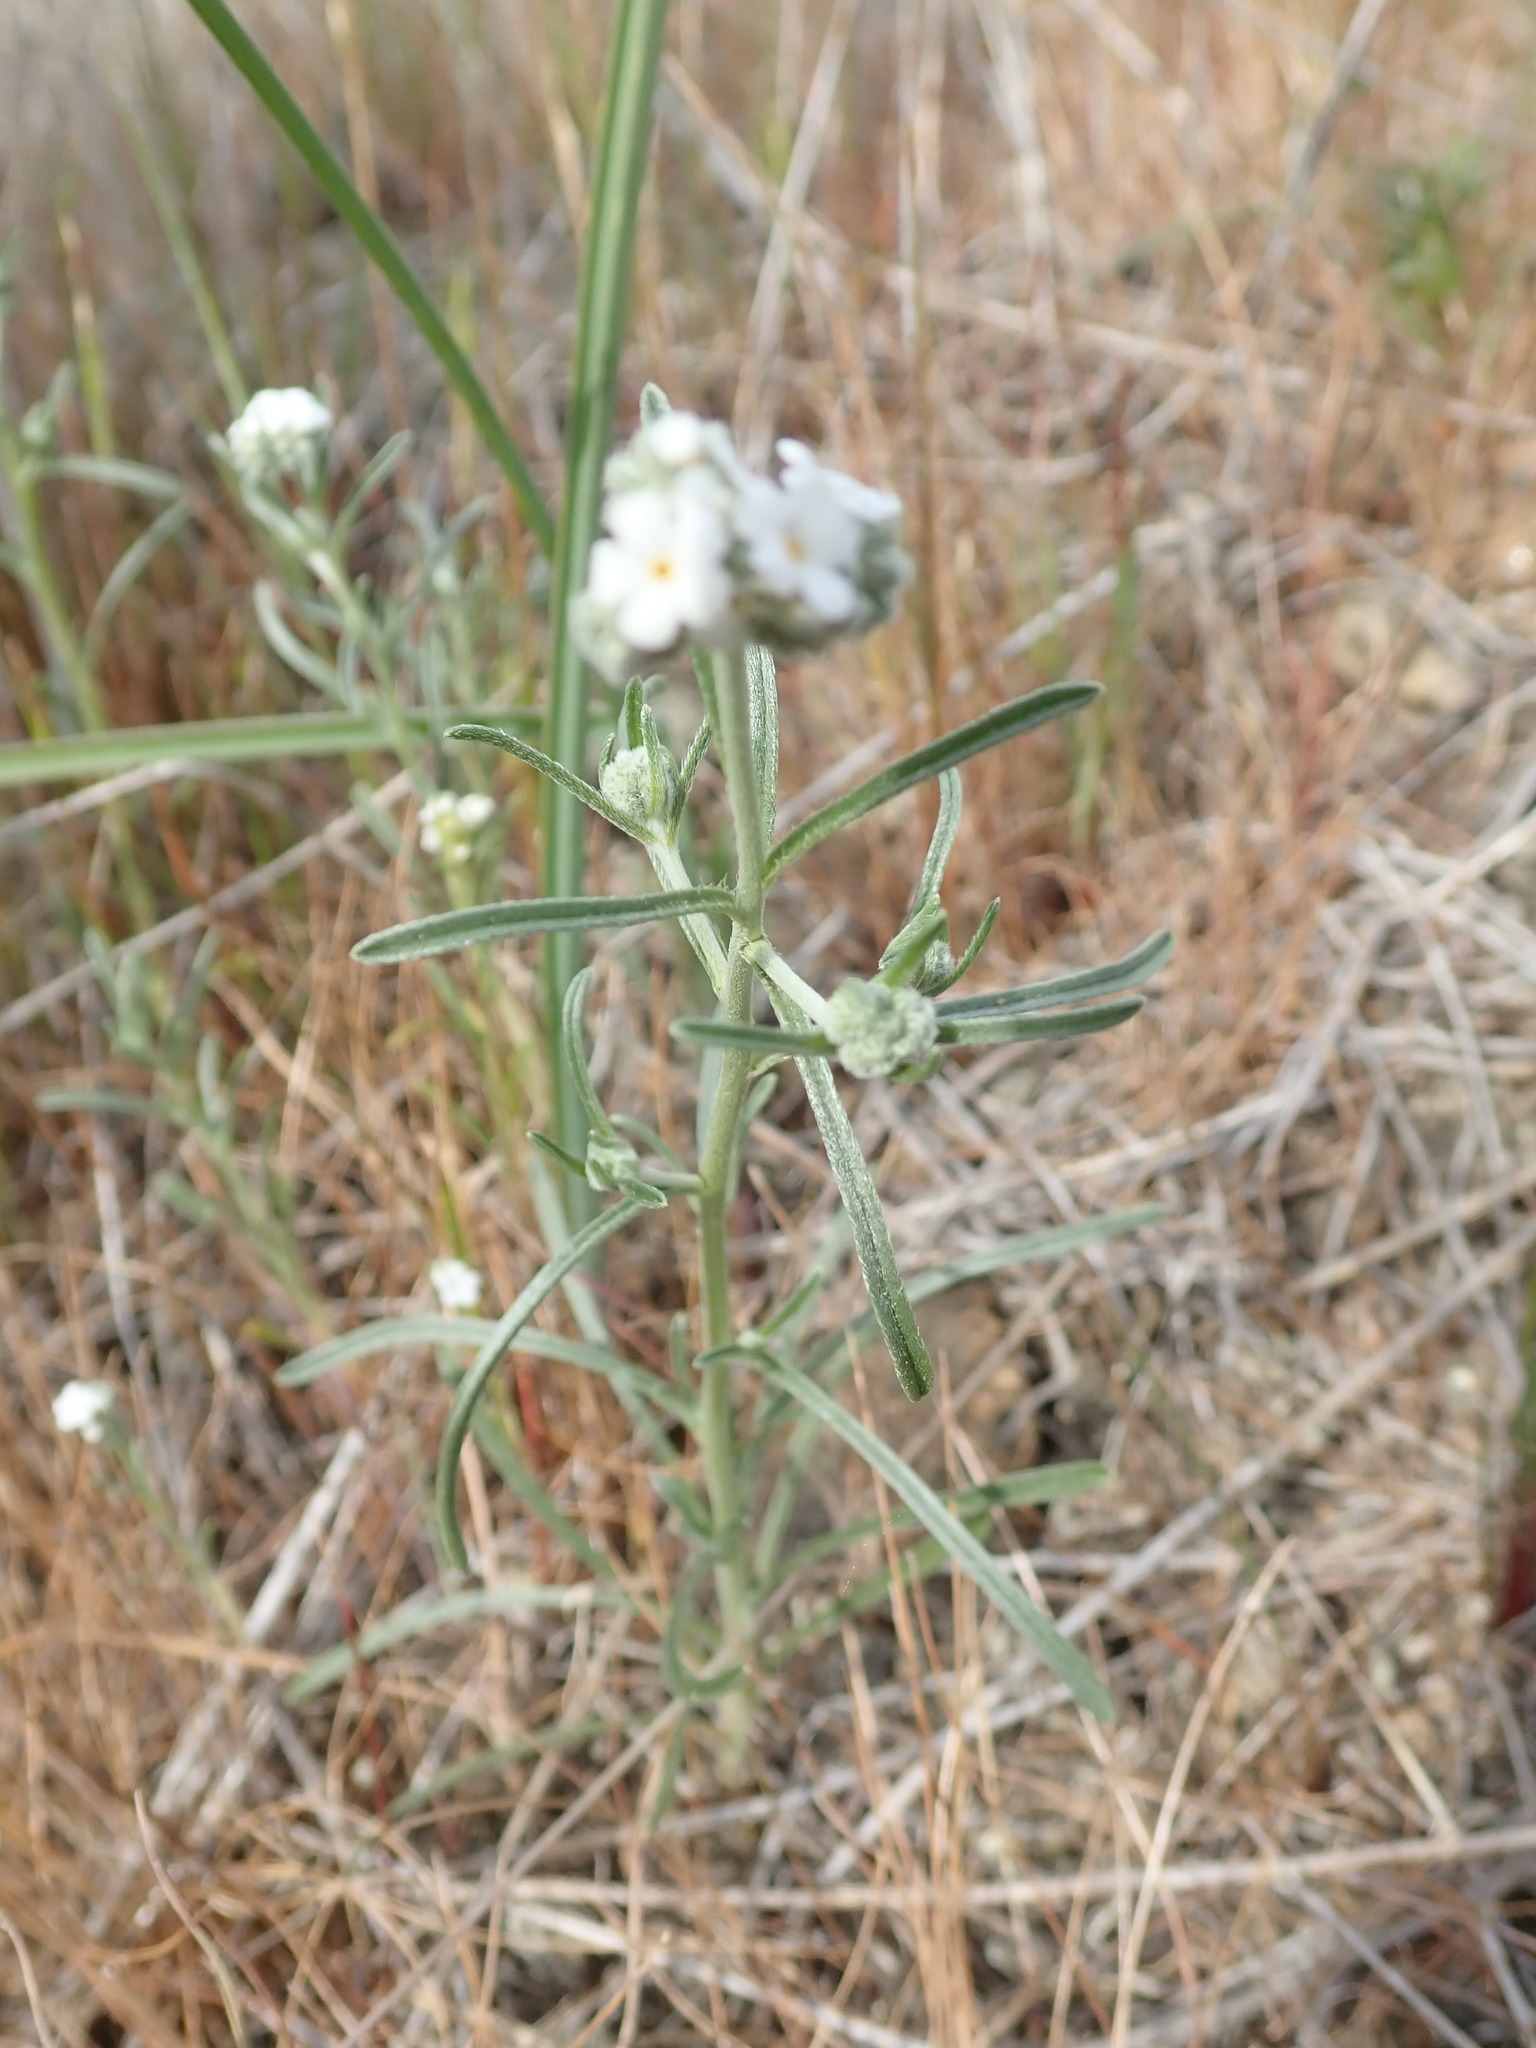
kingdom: Plantae
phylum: Tracheophyta
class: Magnoliopsida
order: Boraginales
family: Boraginaceae
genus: Cryptantha
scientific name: Cryptantha flaccida
